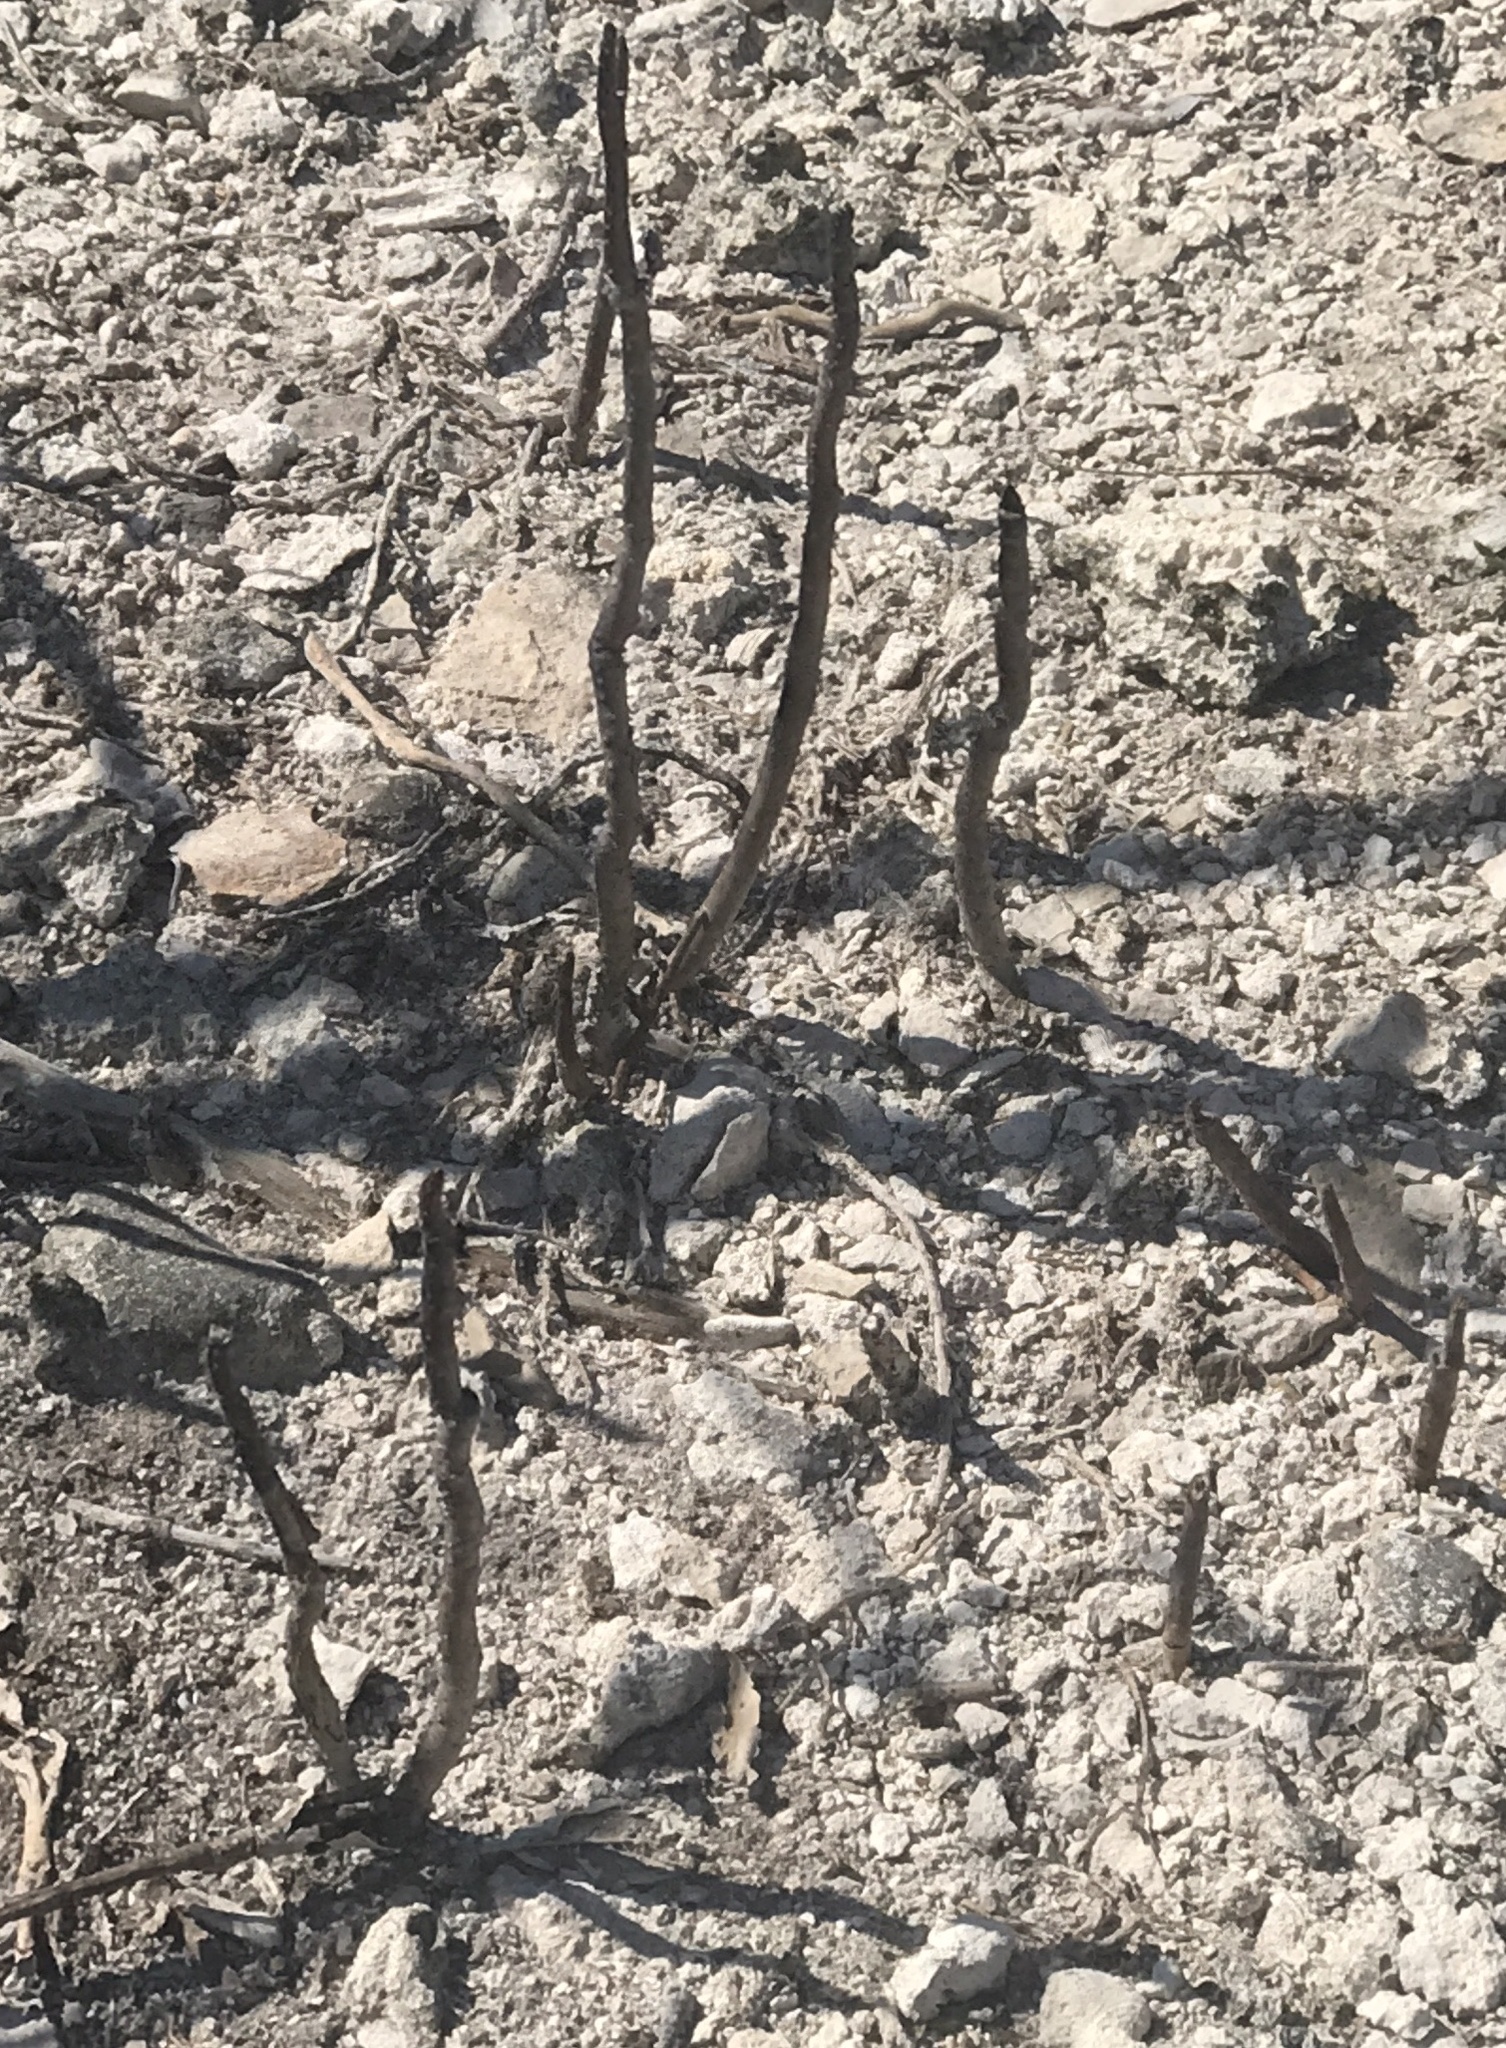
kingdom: Plantae
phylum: Tracheophyta
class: Magnoliopsida
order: Lamiales
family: Acanthaceae
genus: Avicennia
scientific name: Avicennia germinans
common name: Black mangrove
